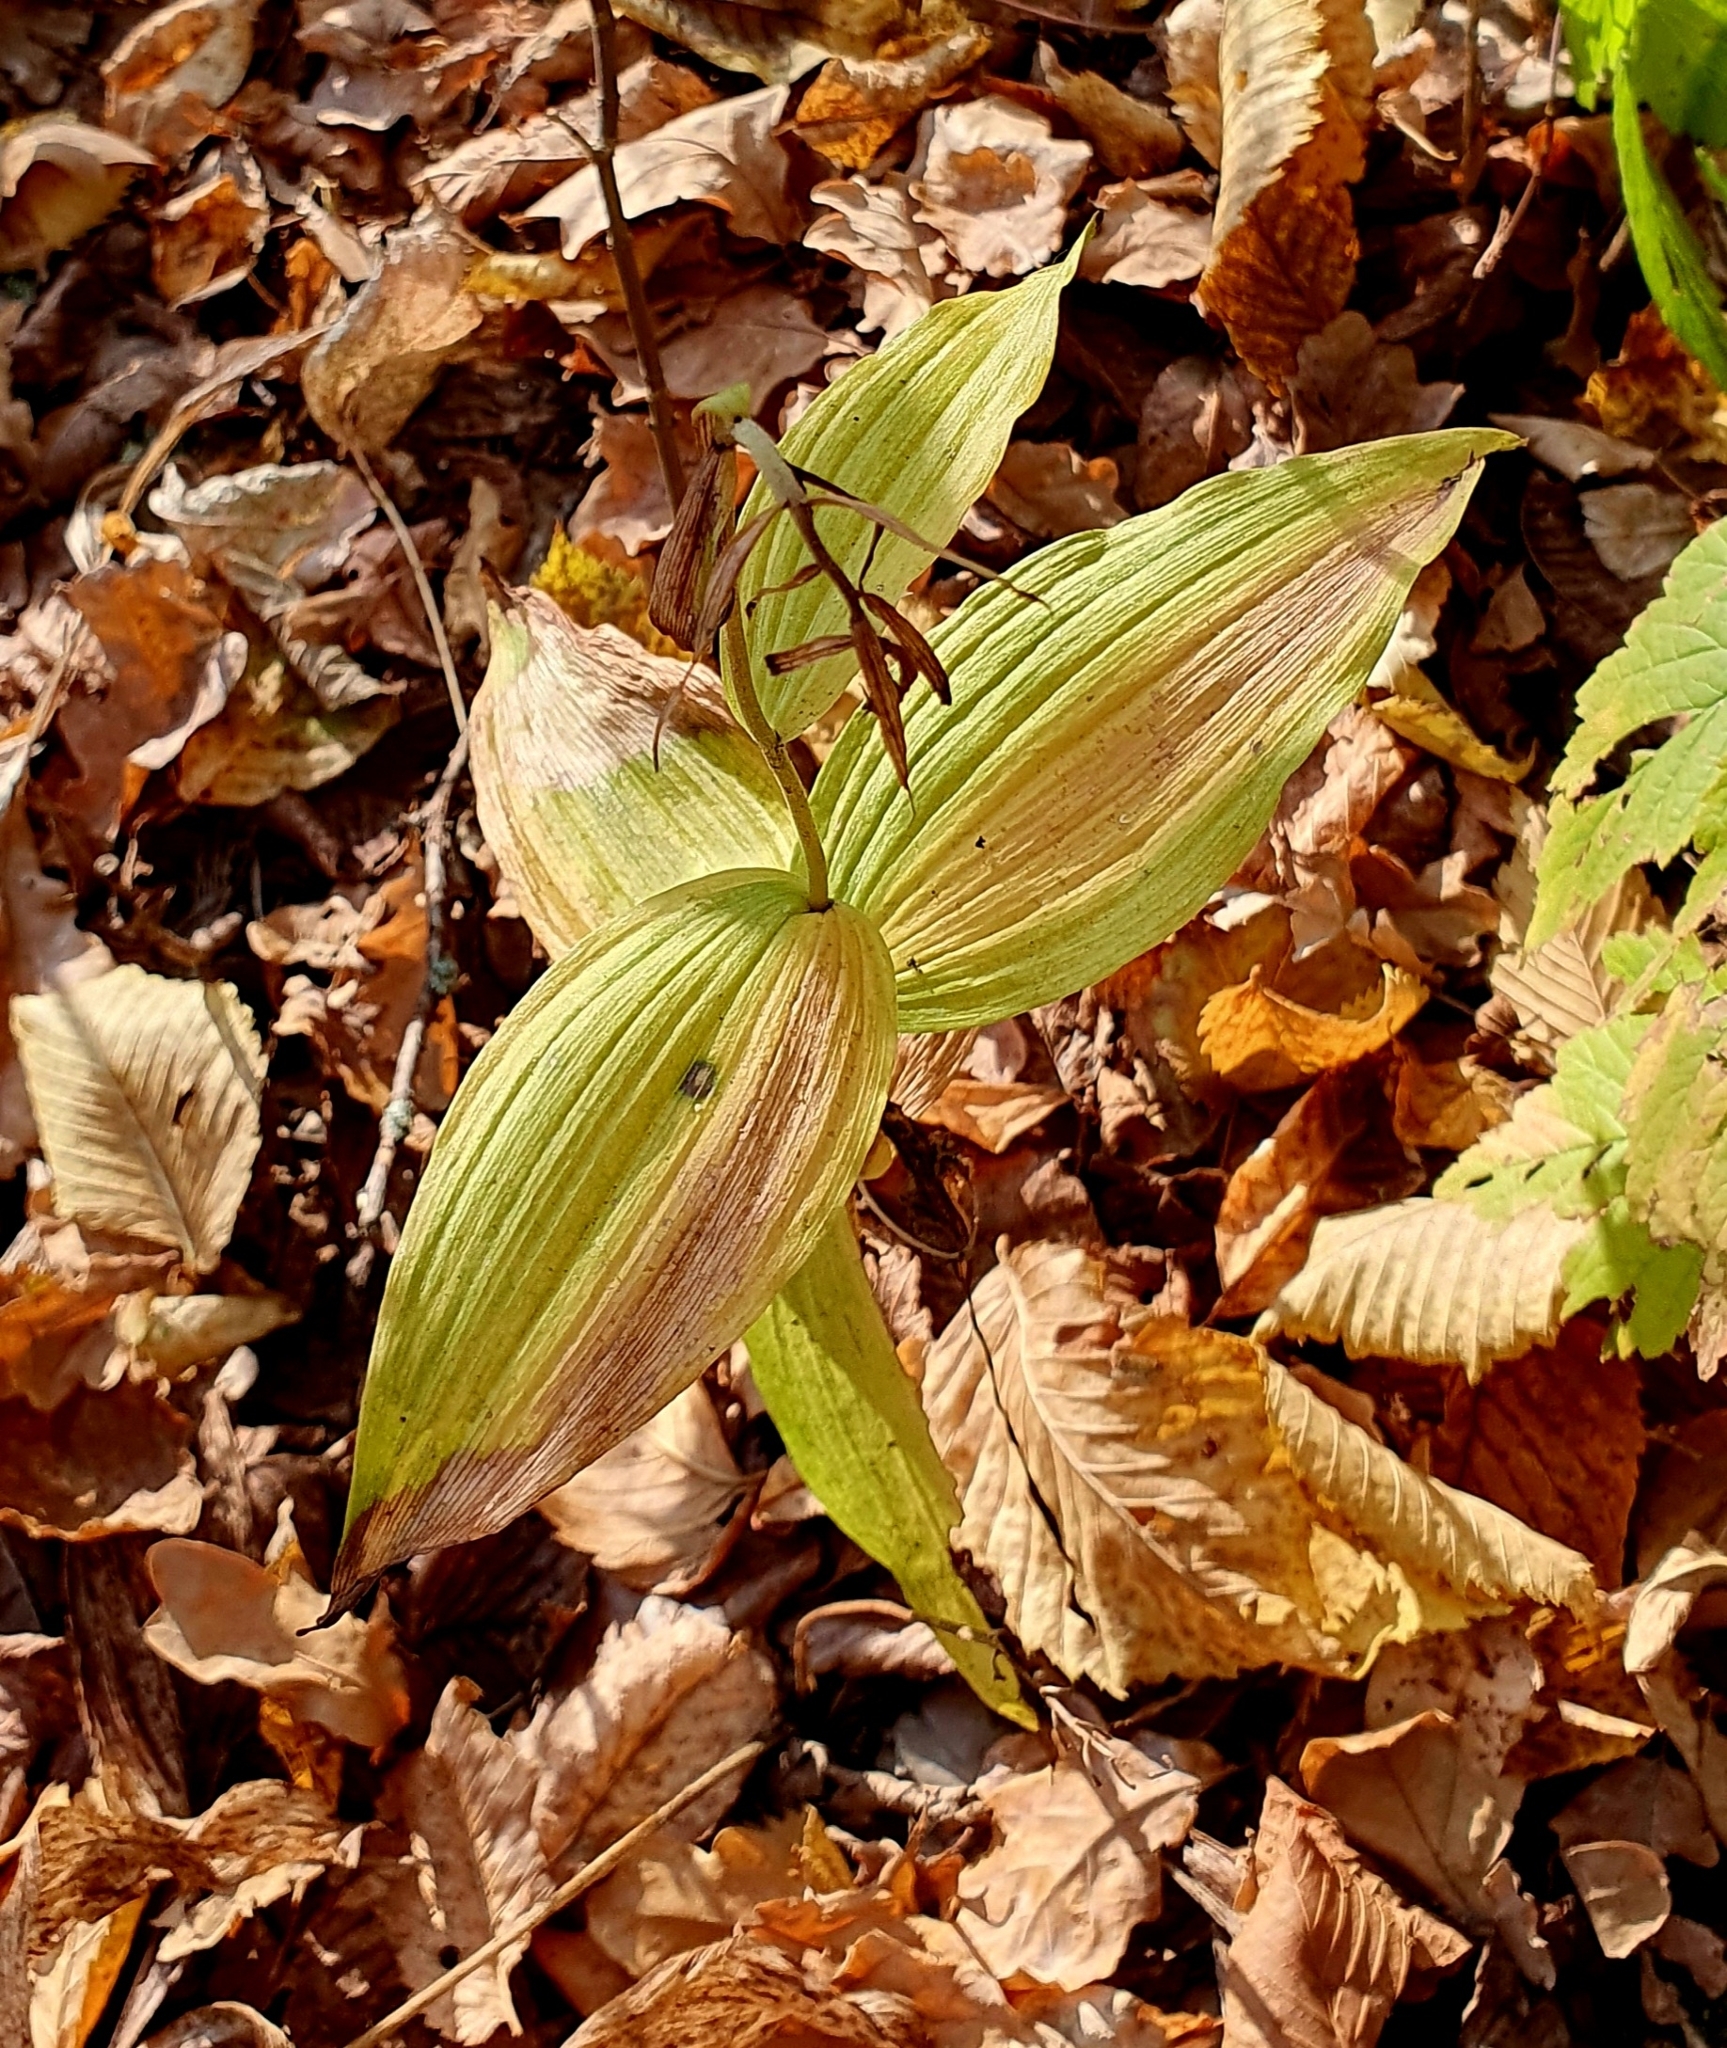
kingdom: Plantae
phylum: Tracheophyta
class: Liliopsida
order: Asparagales
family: Orchidaceae
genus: Epipactis
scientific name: Epipactis helleborine
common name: Broad-leaved helleborine
